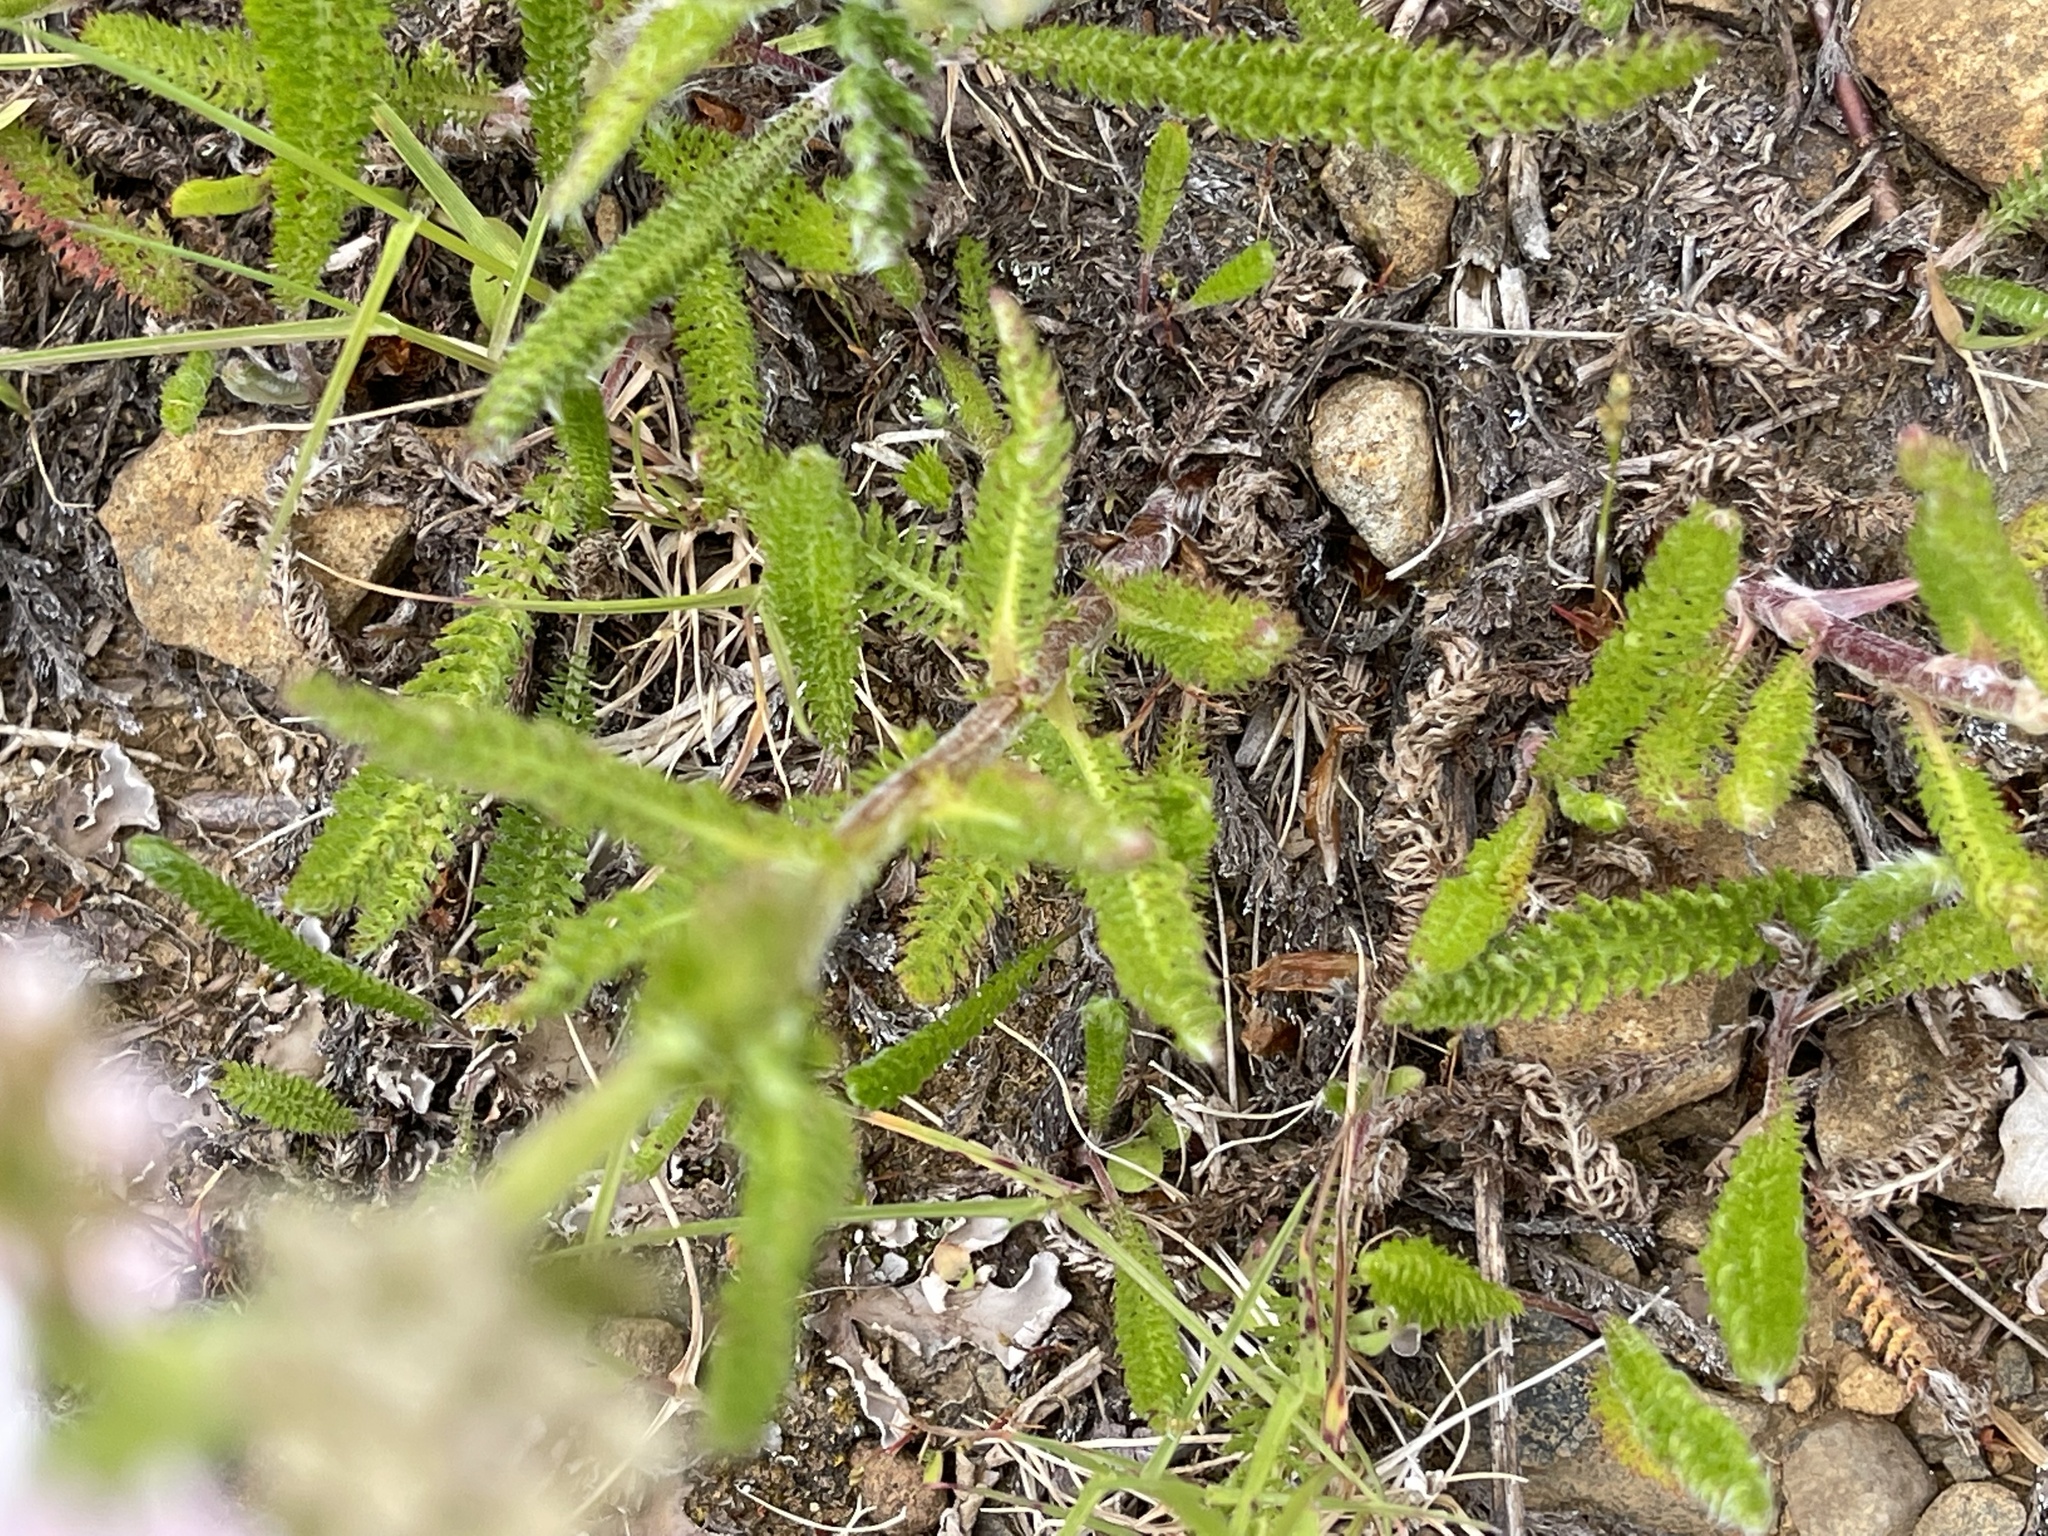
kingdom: Plantae
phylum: Tracheophyta
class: Magnoliopsida
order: Asterales
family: Asteraceae
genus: Achillea
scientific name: Achillea millefolium
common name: Yarrow
